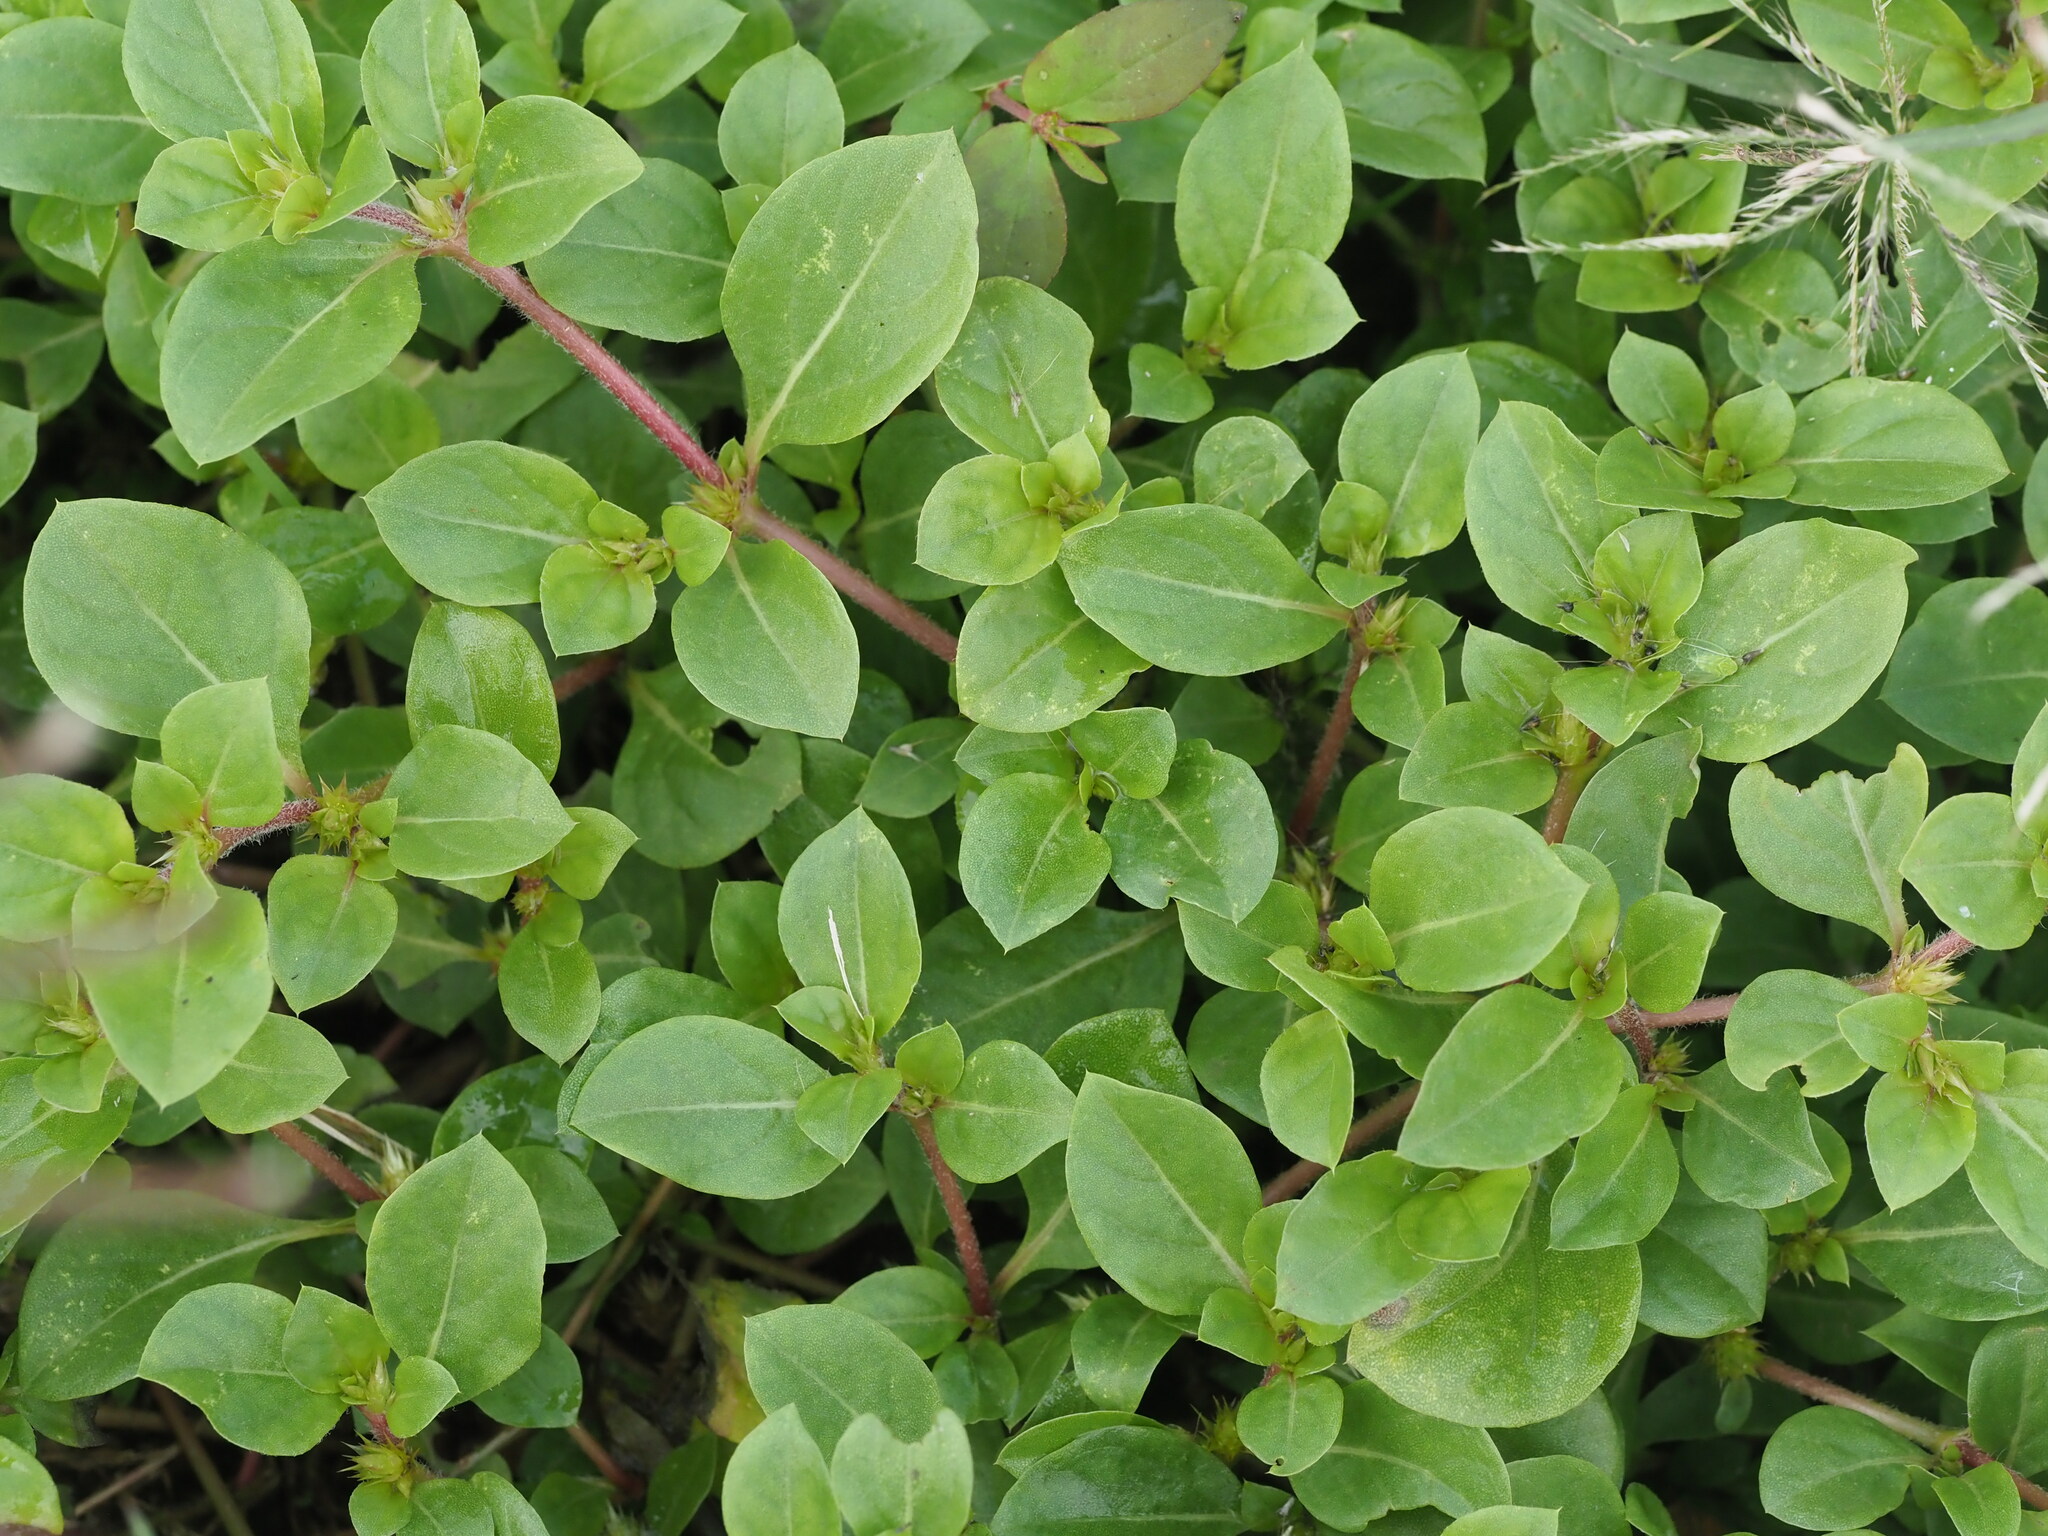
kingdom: Plantae
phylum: Tracheophyta
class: Magnoliopsida
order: Caryophyllales
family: Amaranthaceae
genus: Alternanthera
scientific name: Alternanthera pungens
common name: Khakiweed
